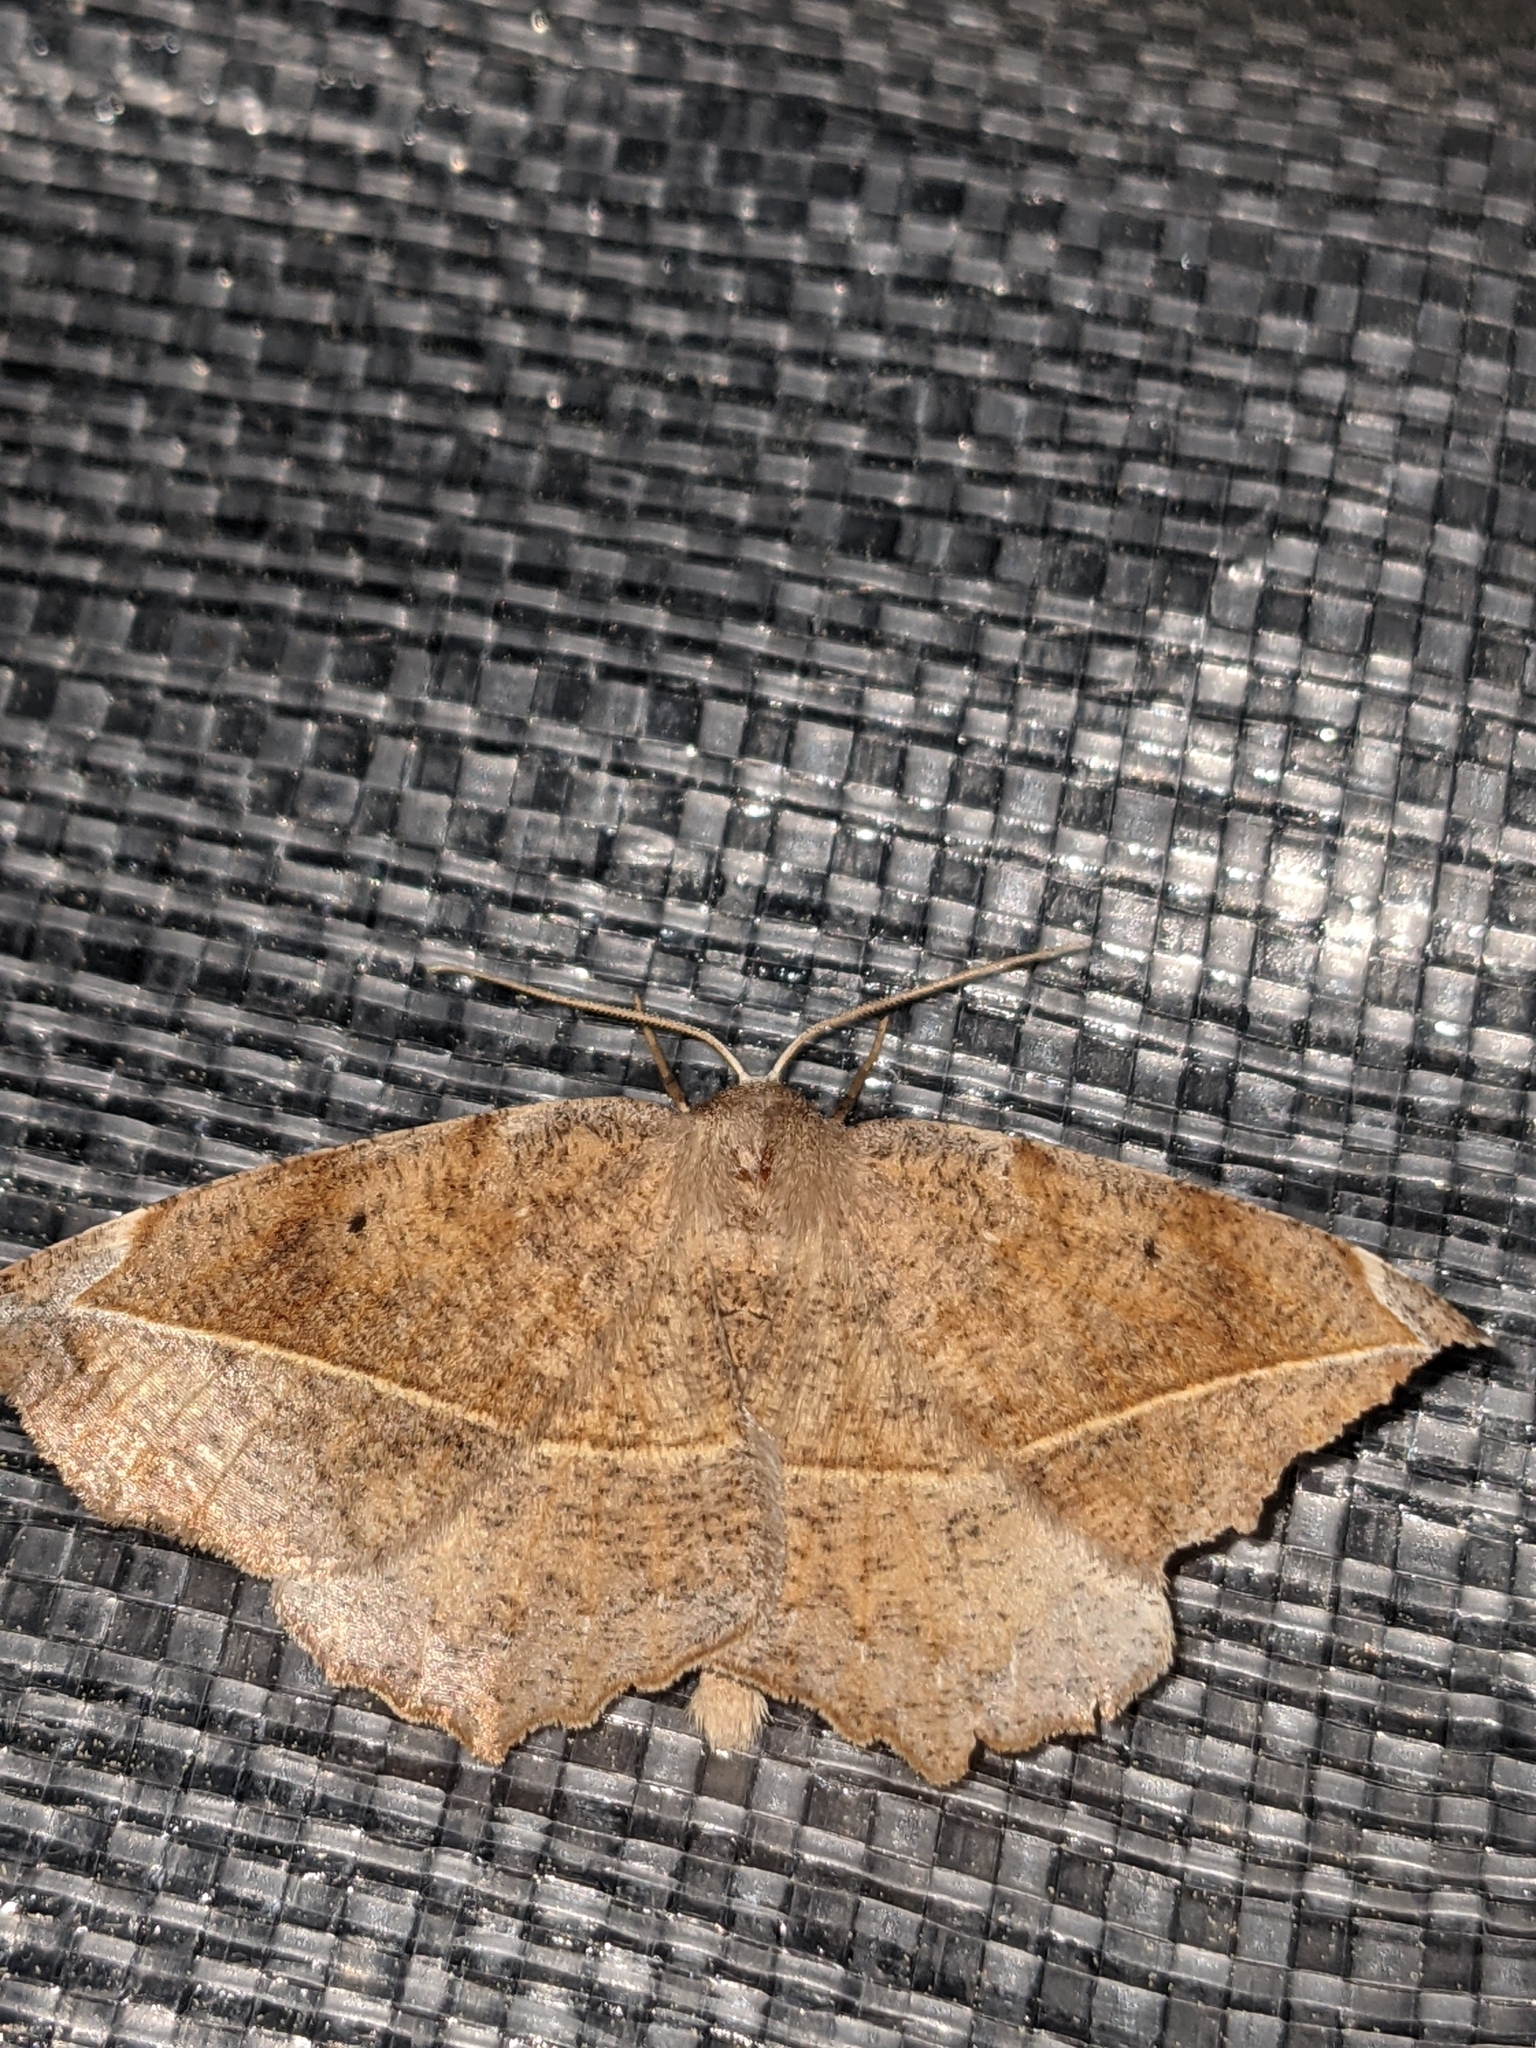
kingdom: Animalia
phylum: Arthropoda
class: Insecta
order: Lepidoptera
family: Geometridae
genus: Eutrapela
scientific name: Eutrapela clemataria
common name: Curved-toothed geometer
